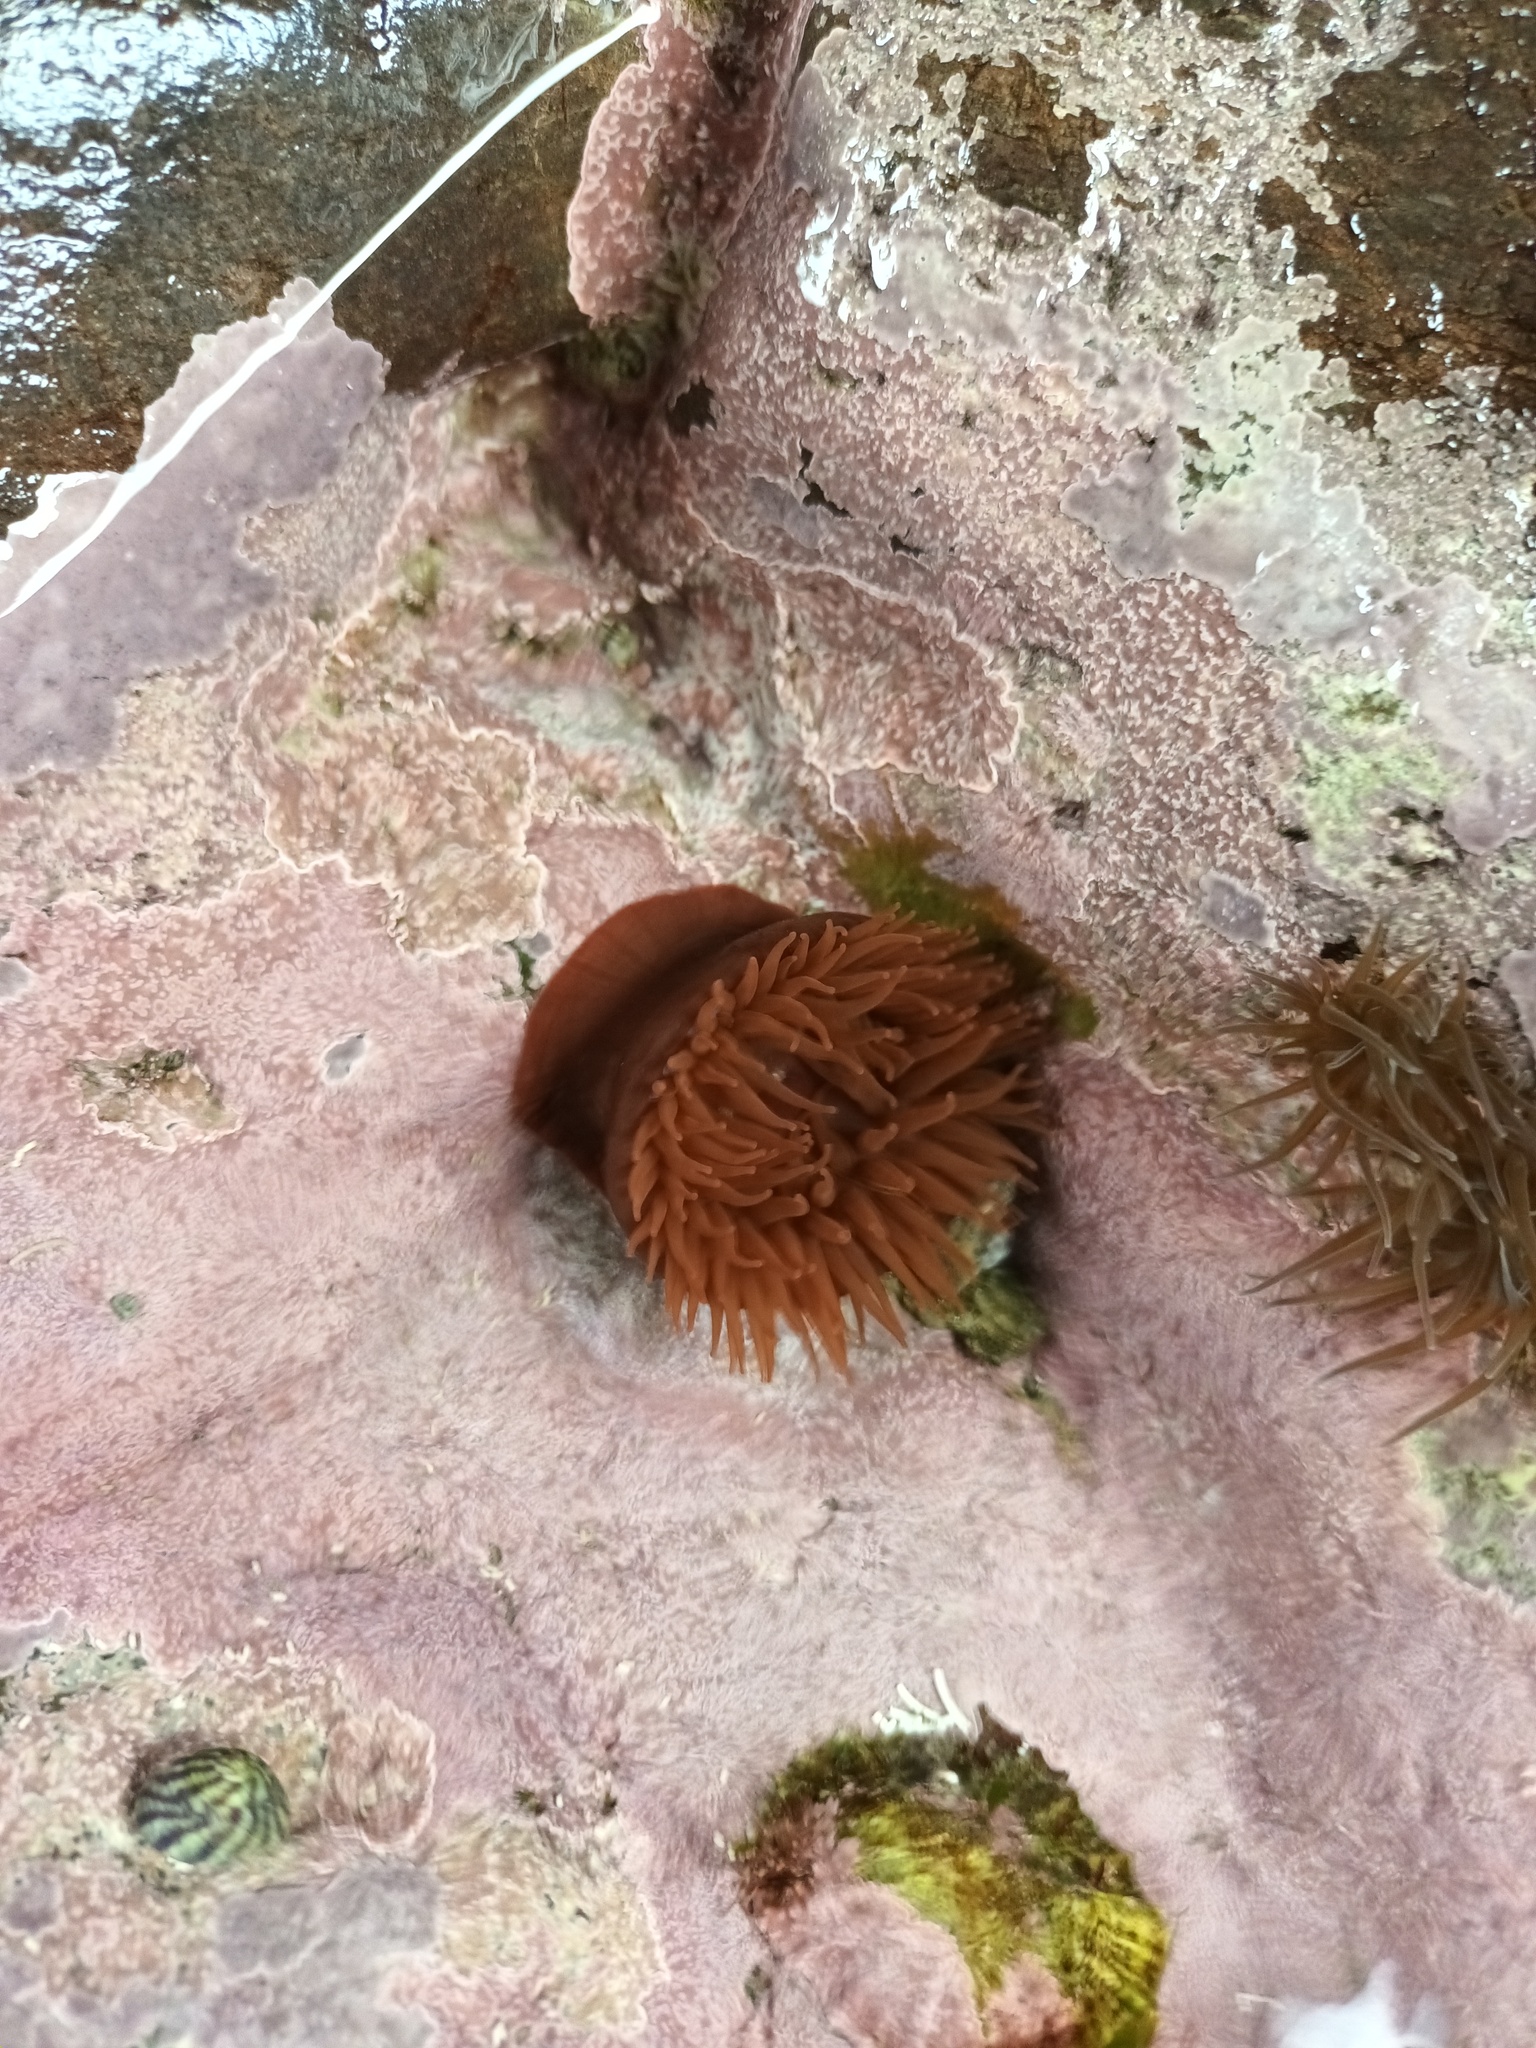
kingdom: Animalia
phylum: Cnidaria
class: Anthozoa
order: Actiniaria
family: Actiniidae
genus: Actinia
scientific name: Actinia equina
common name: Beadlet anemone
